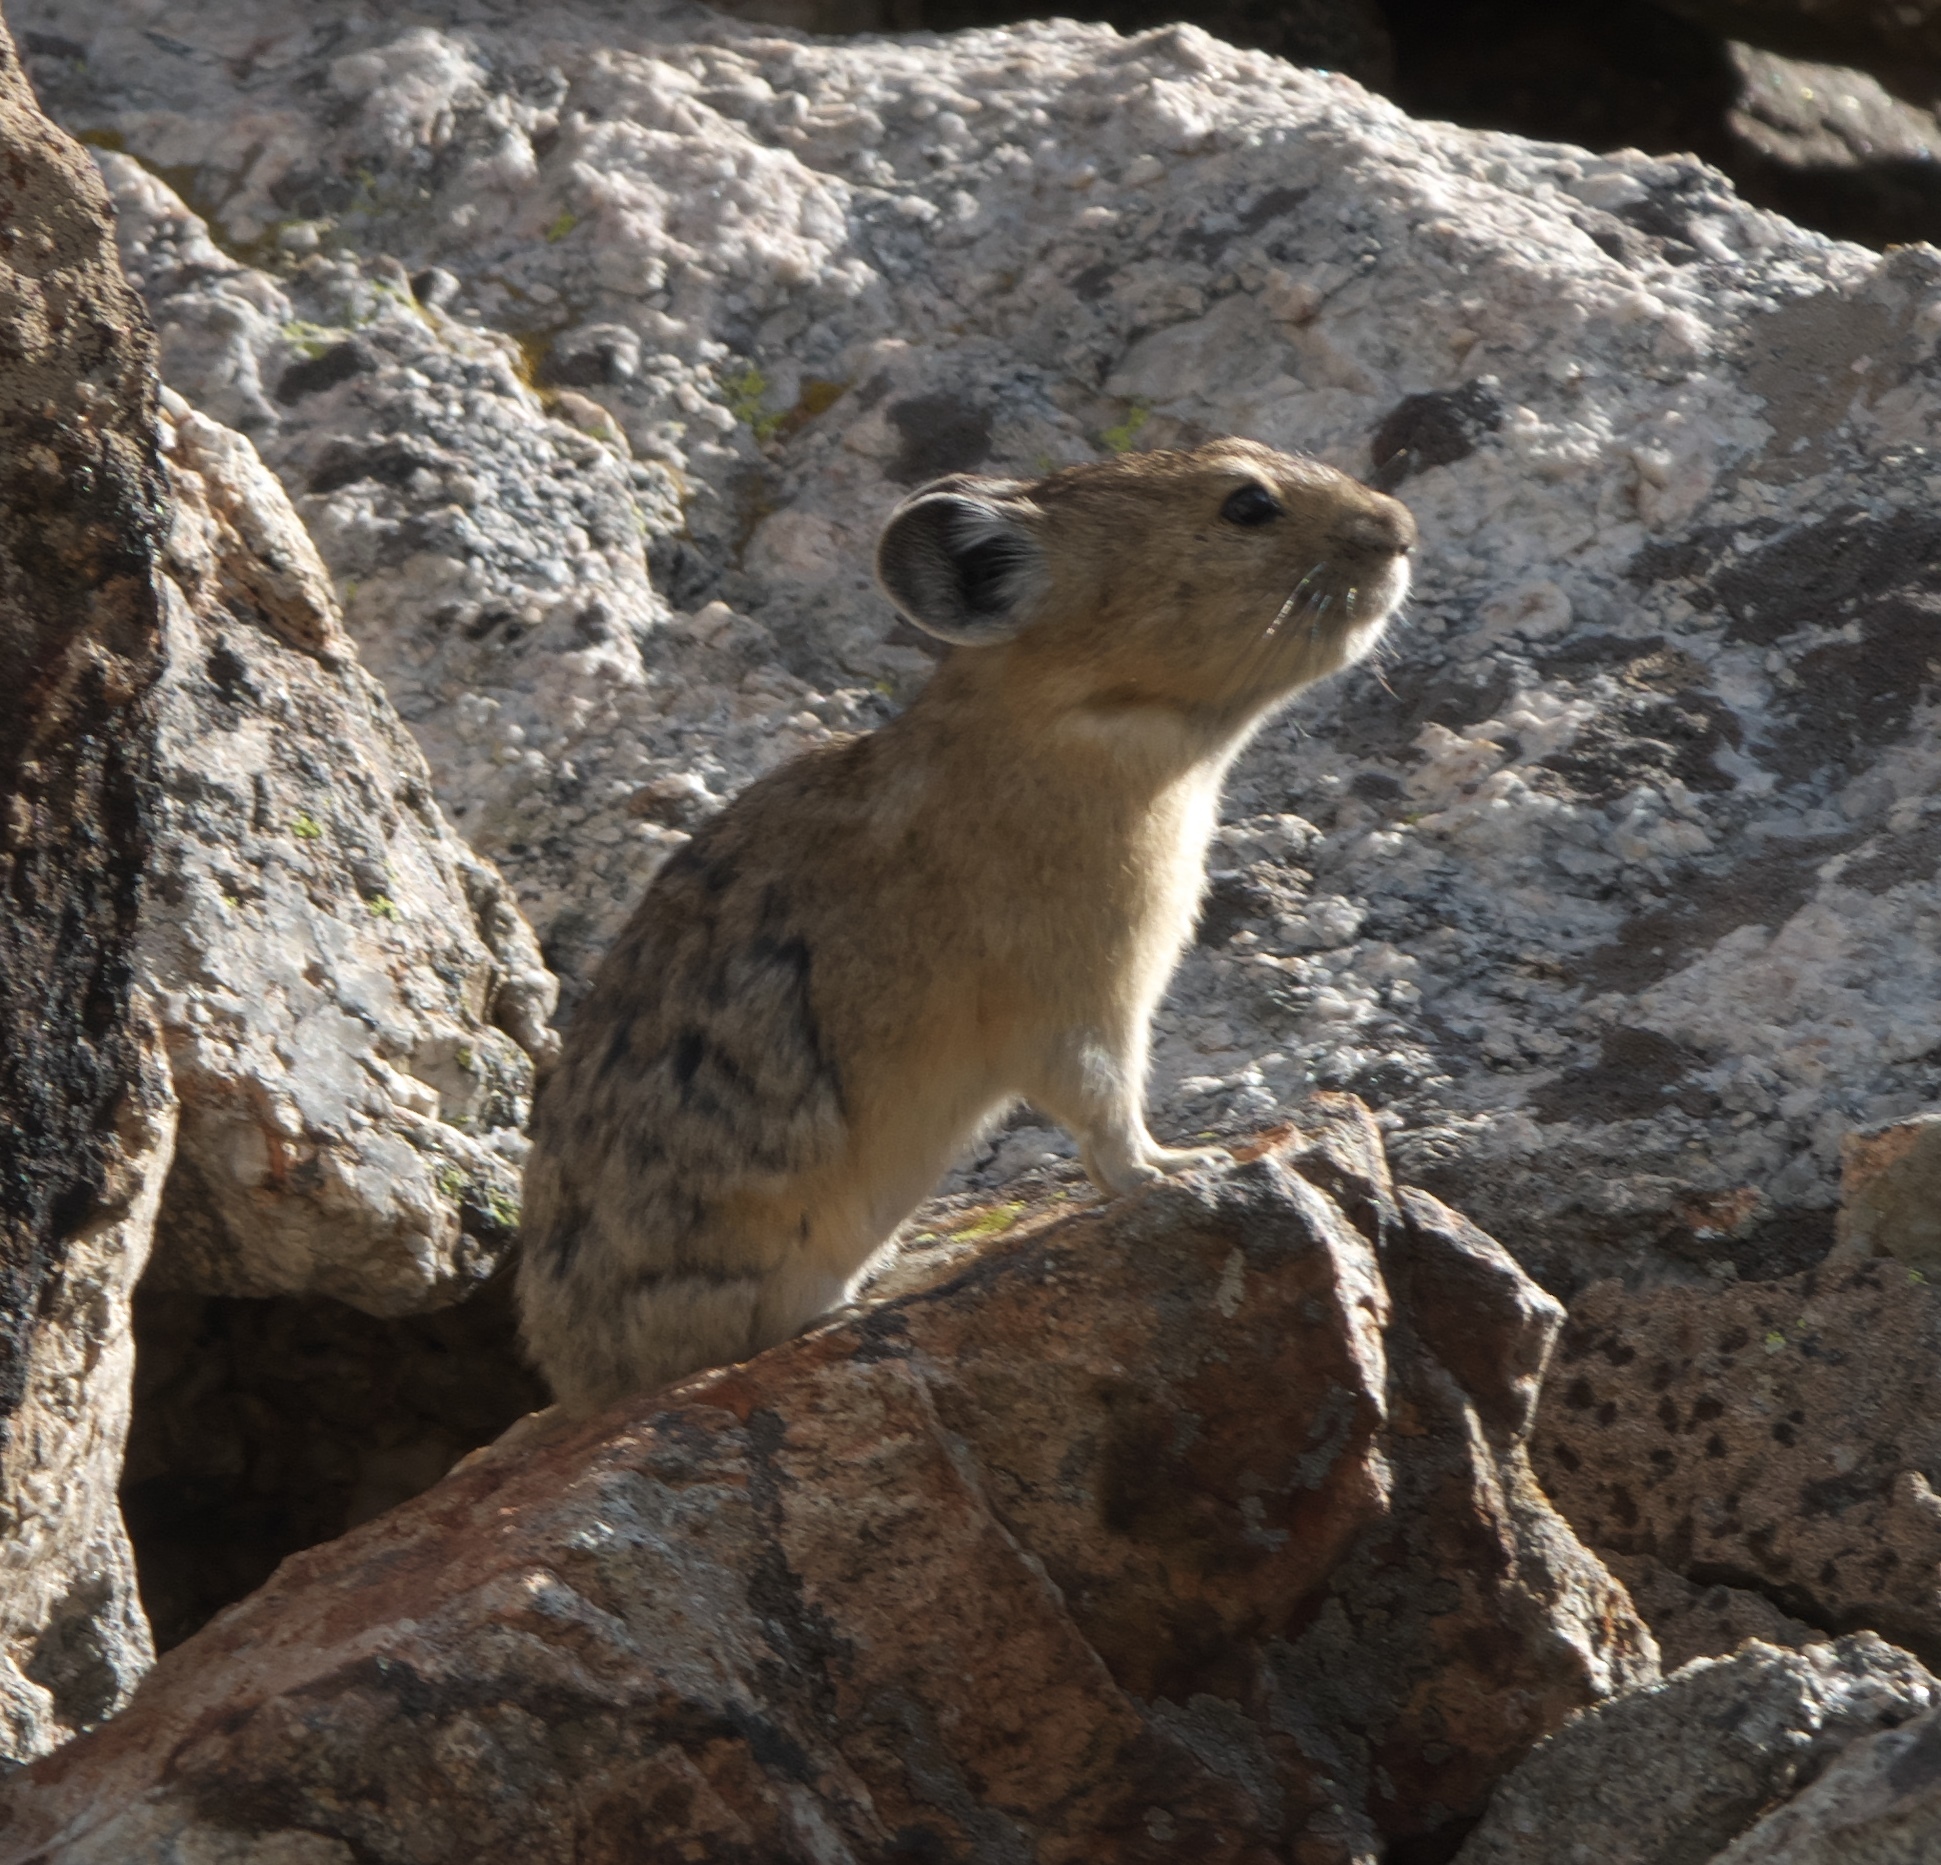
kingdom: Animalia
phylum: Chordata
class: Mammalia
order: Lagomorpha
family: Ochotonidae
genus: Ochotona
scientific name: Ochotona princeps
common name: American pika
